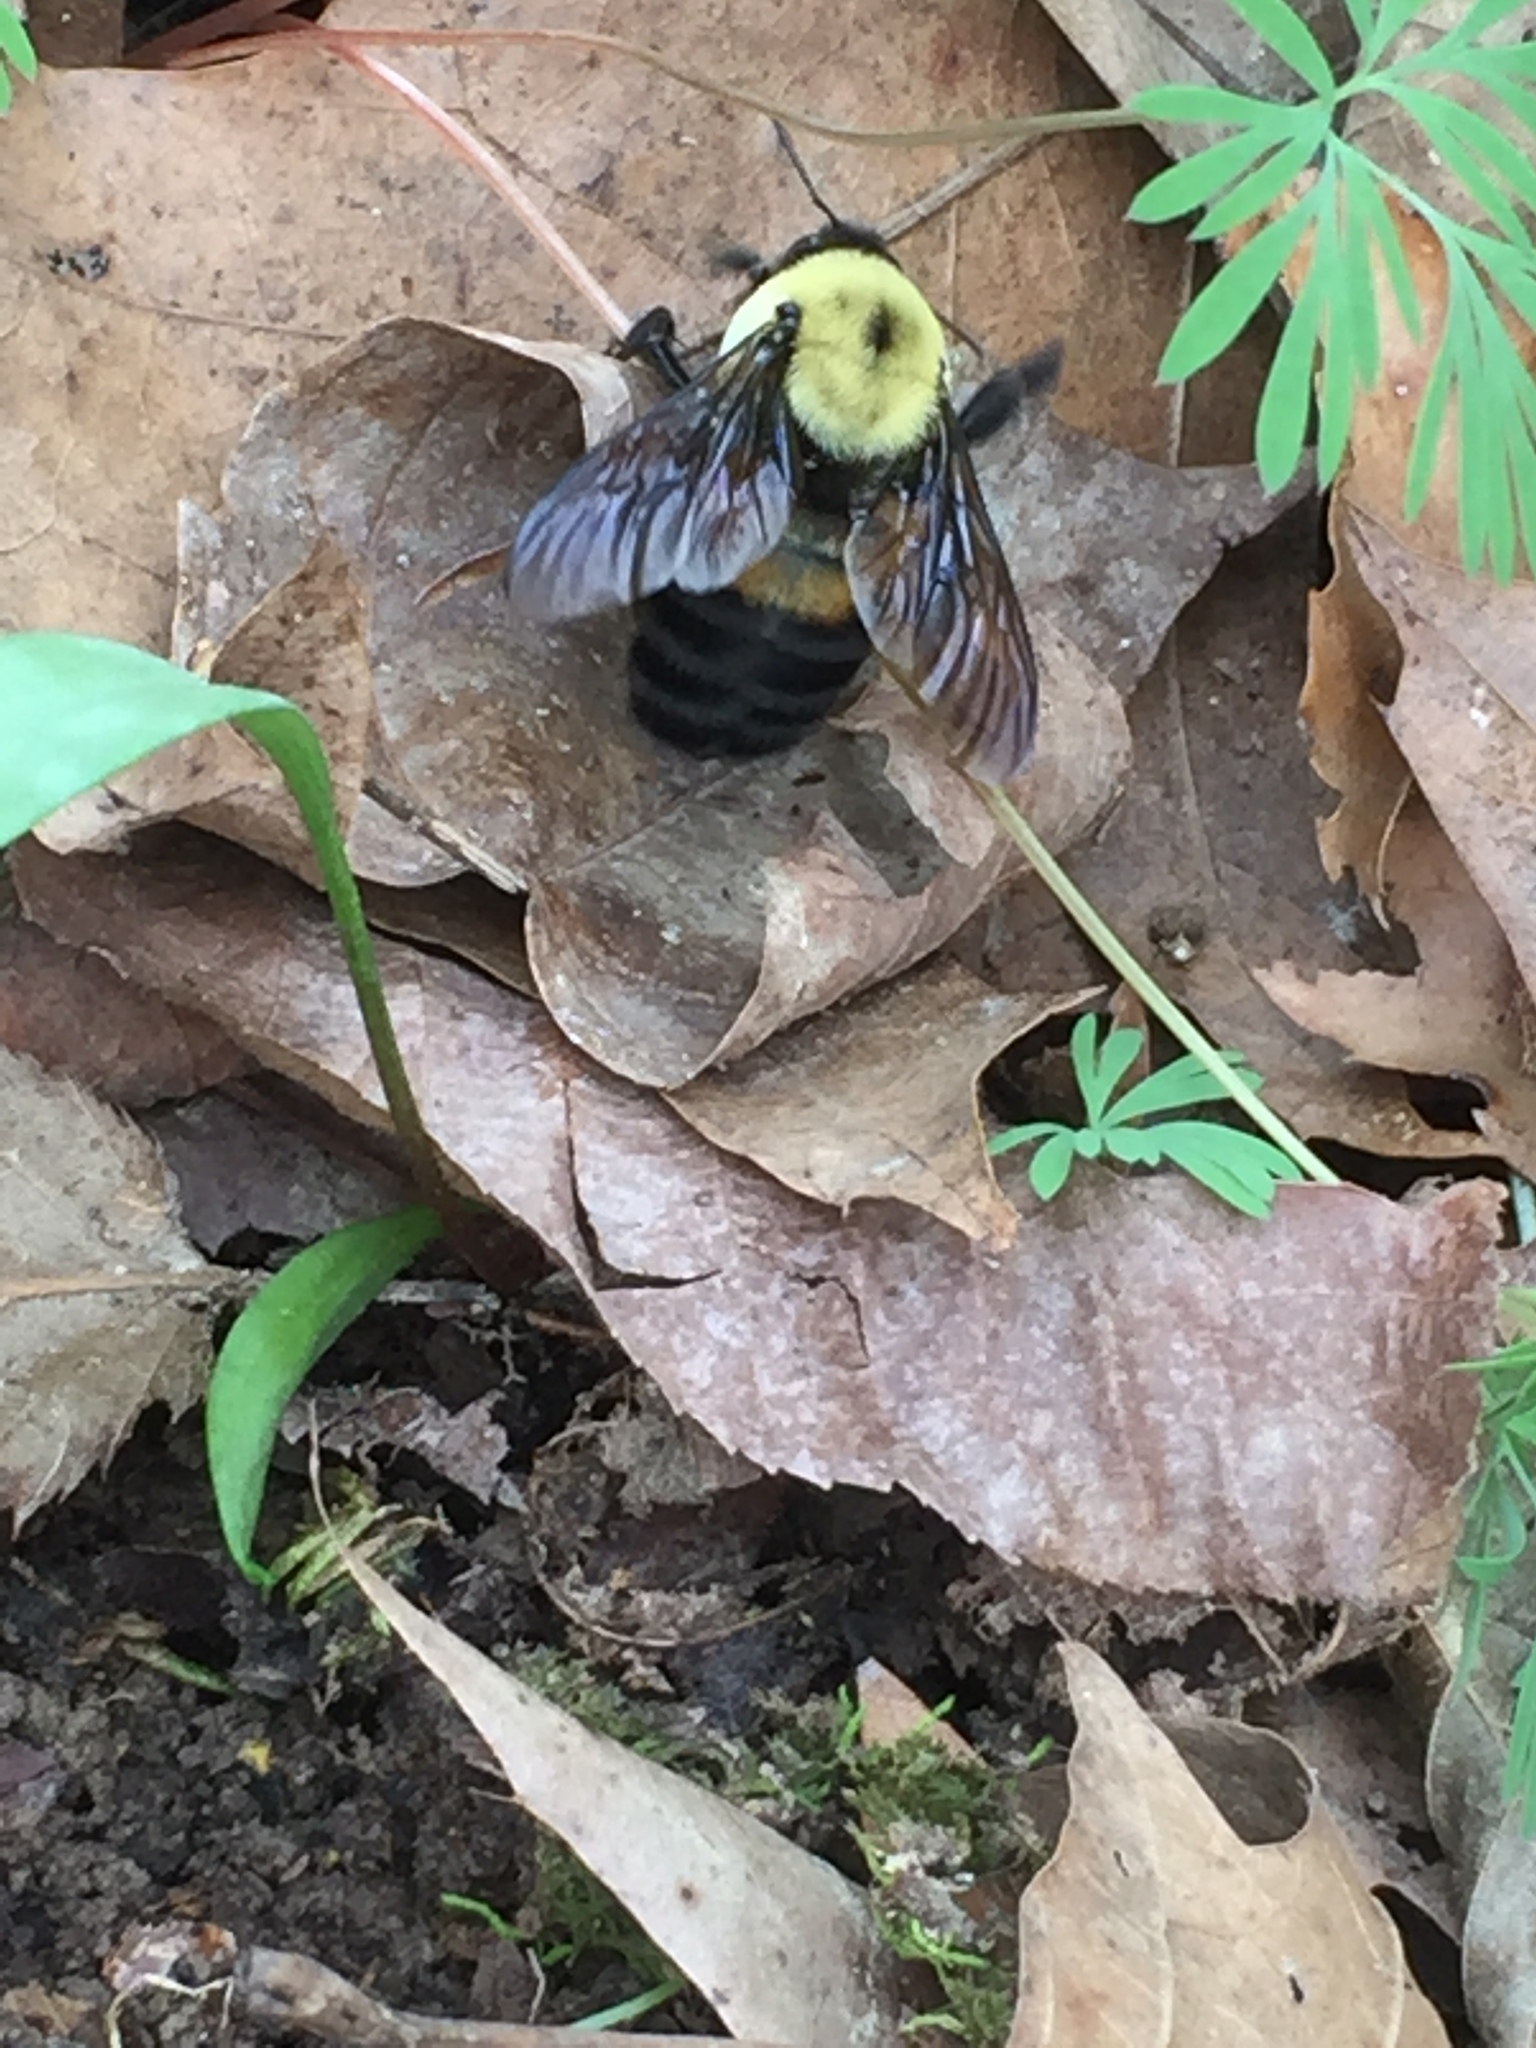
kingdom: Animalia
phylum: Arthropoda
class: Insecta
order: Hymenoptera
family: Apidae
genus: Bombus
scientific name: Bombus griseocollis
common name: Brown-belted bumble bee
